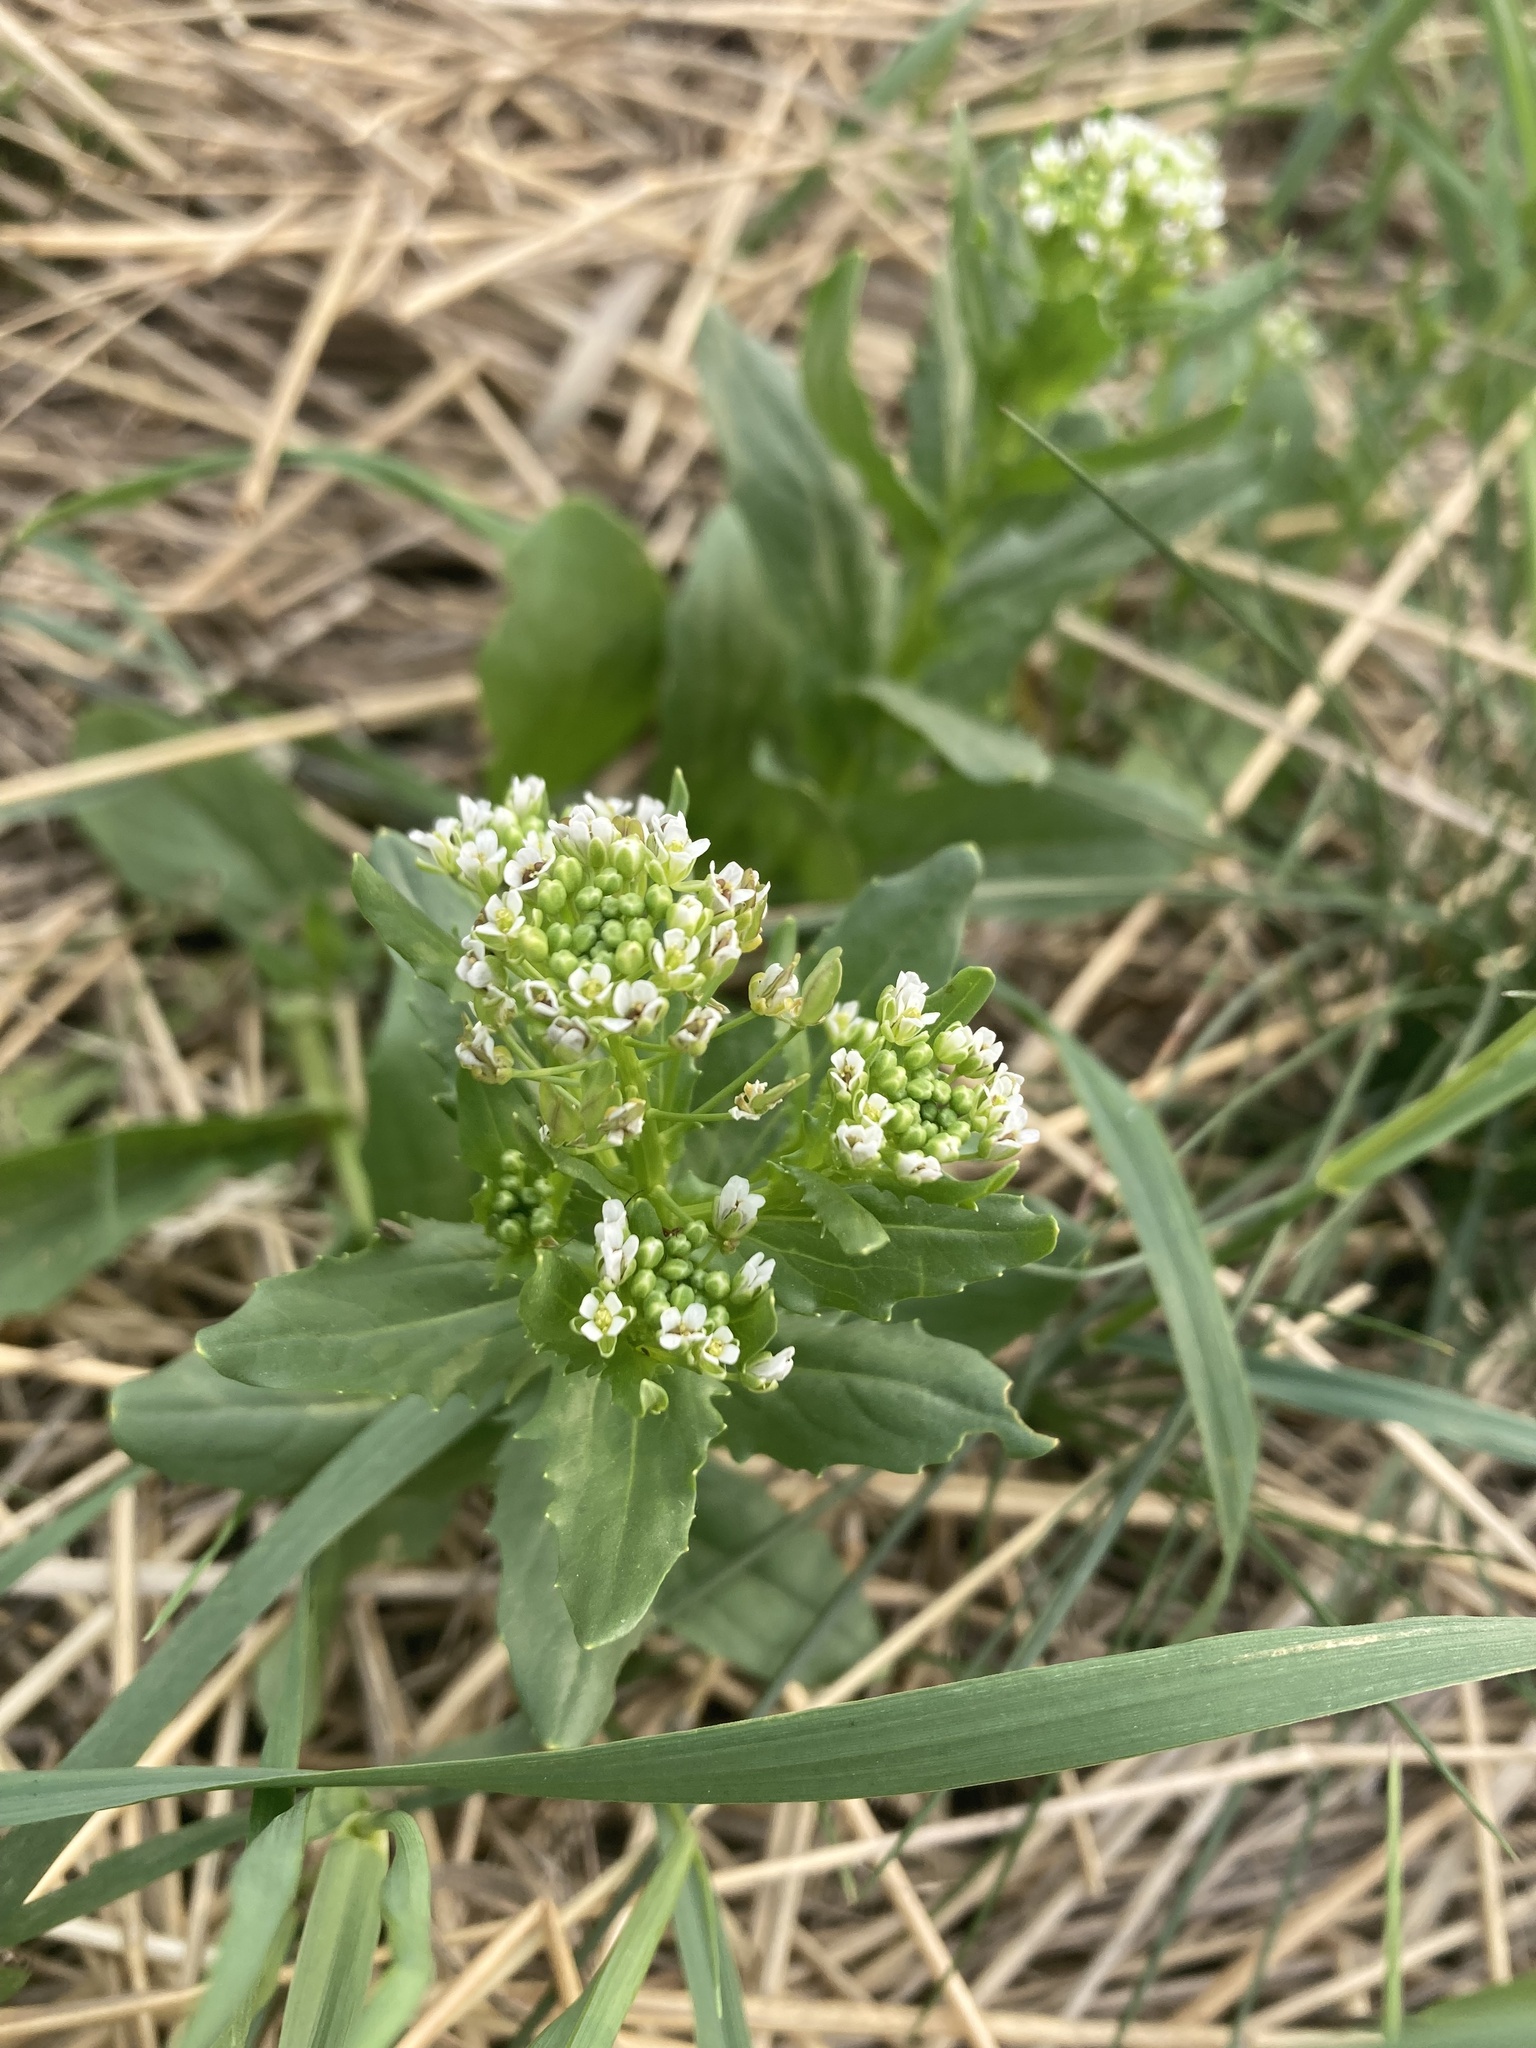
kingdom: Plantae
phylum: Tracheophyta
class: Magnoliopsida
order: Brassicales
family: Brassicaceae
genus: Thlaspi
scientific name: Thlaspi arvense
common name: Field pennycress
